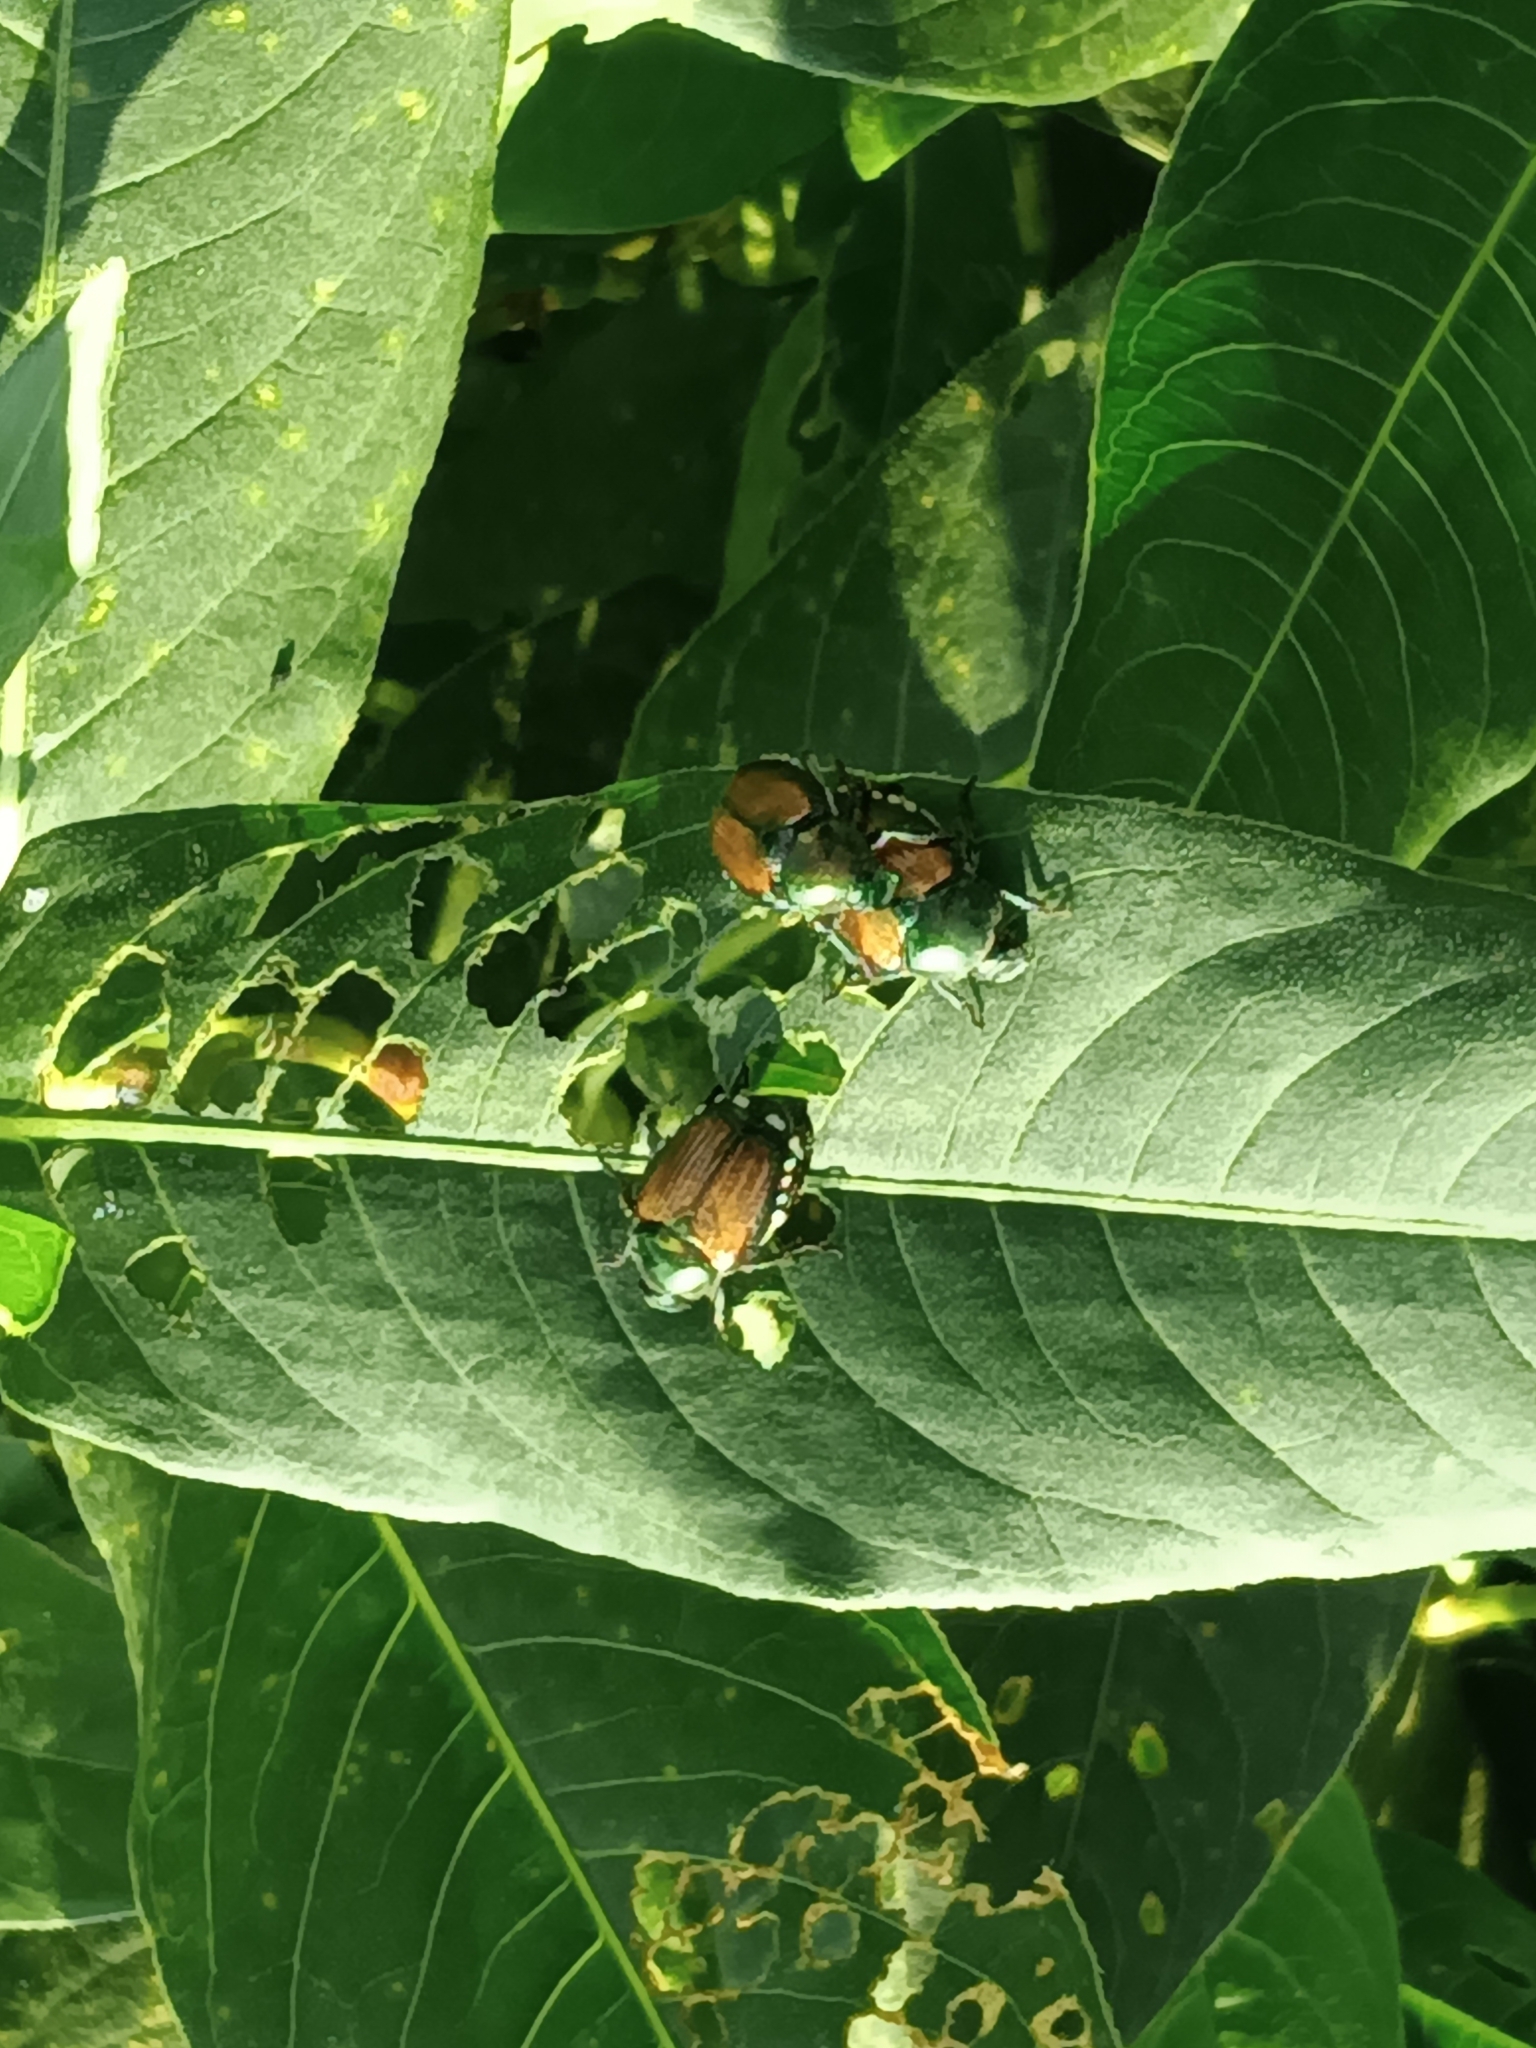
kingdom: Animalia
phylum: Arthropoda
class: Insecta
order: Coleoptera
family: Scarabaeidae
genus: Popillia
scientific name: Popillia japonica
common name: Japanese beetle
